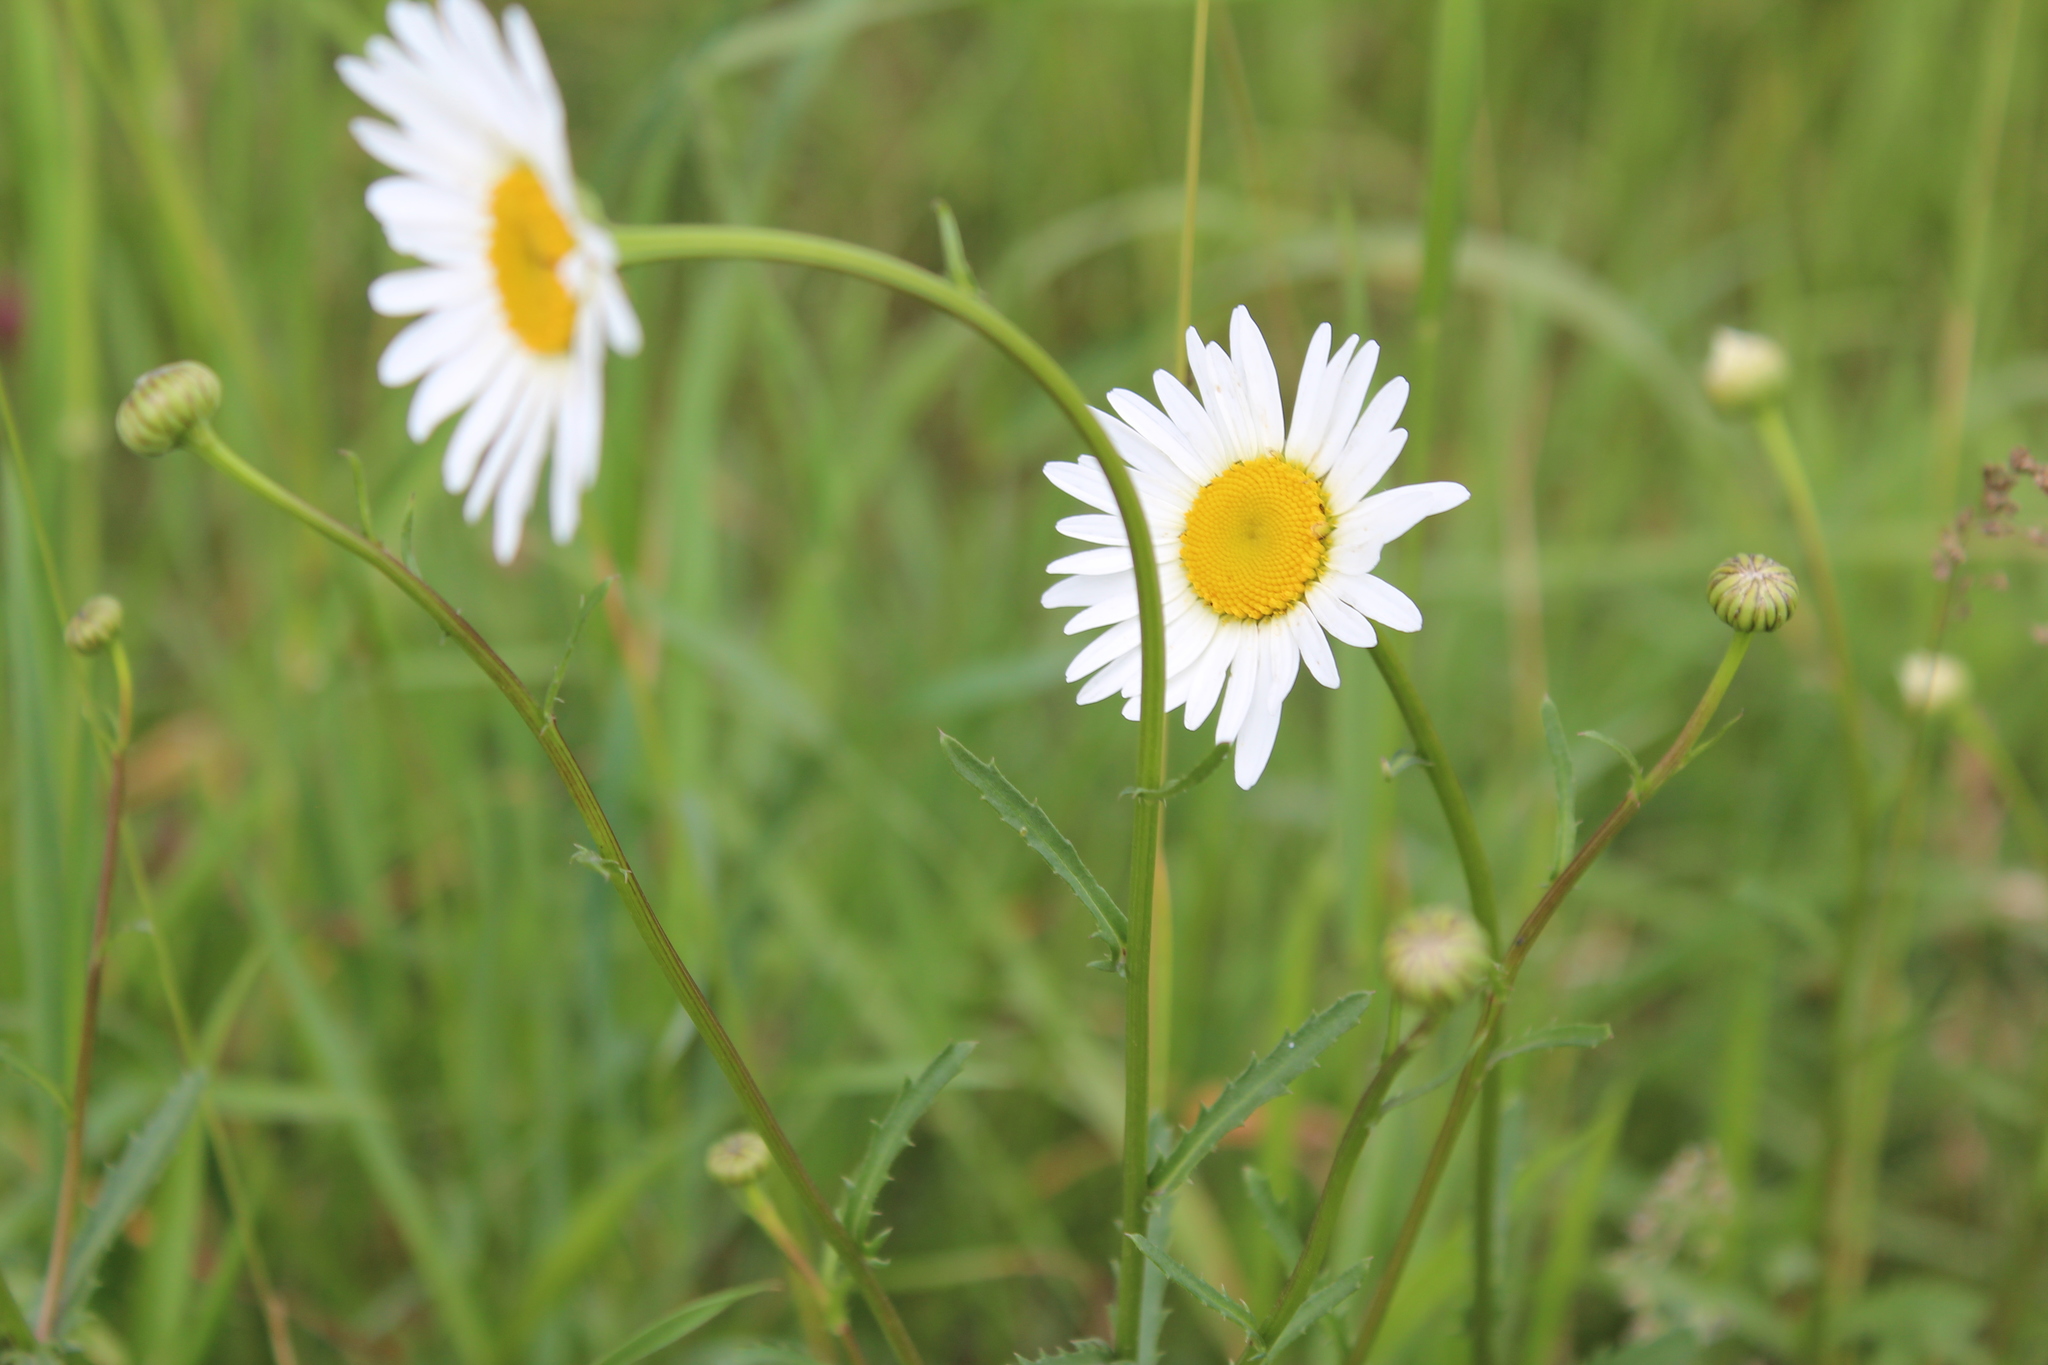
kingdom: Plantae
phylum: Tracheophyta
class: Magnoliopsida
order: Asterales
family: Asteraceae
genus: Leucanthemum
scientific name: Leucanthemum vulgare
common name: Oxeye daisy
